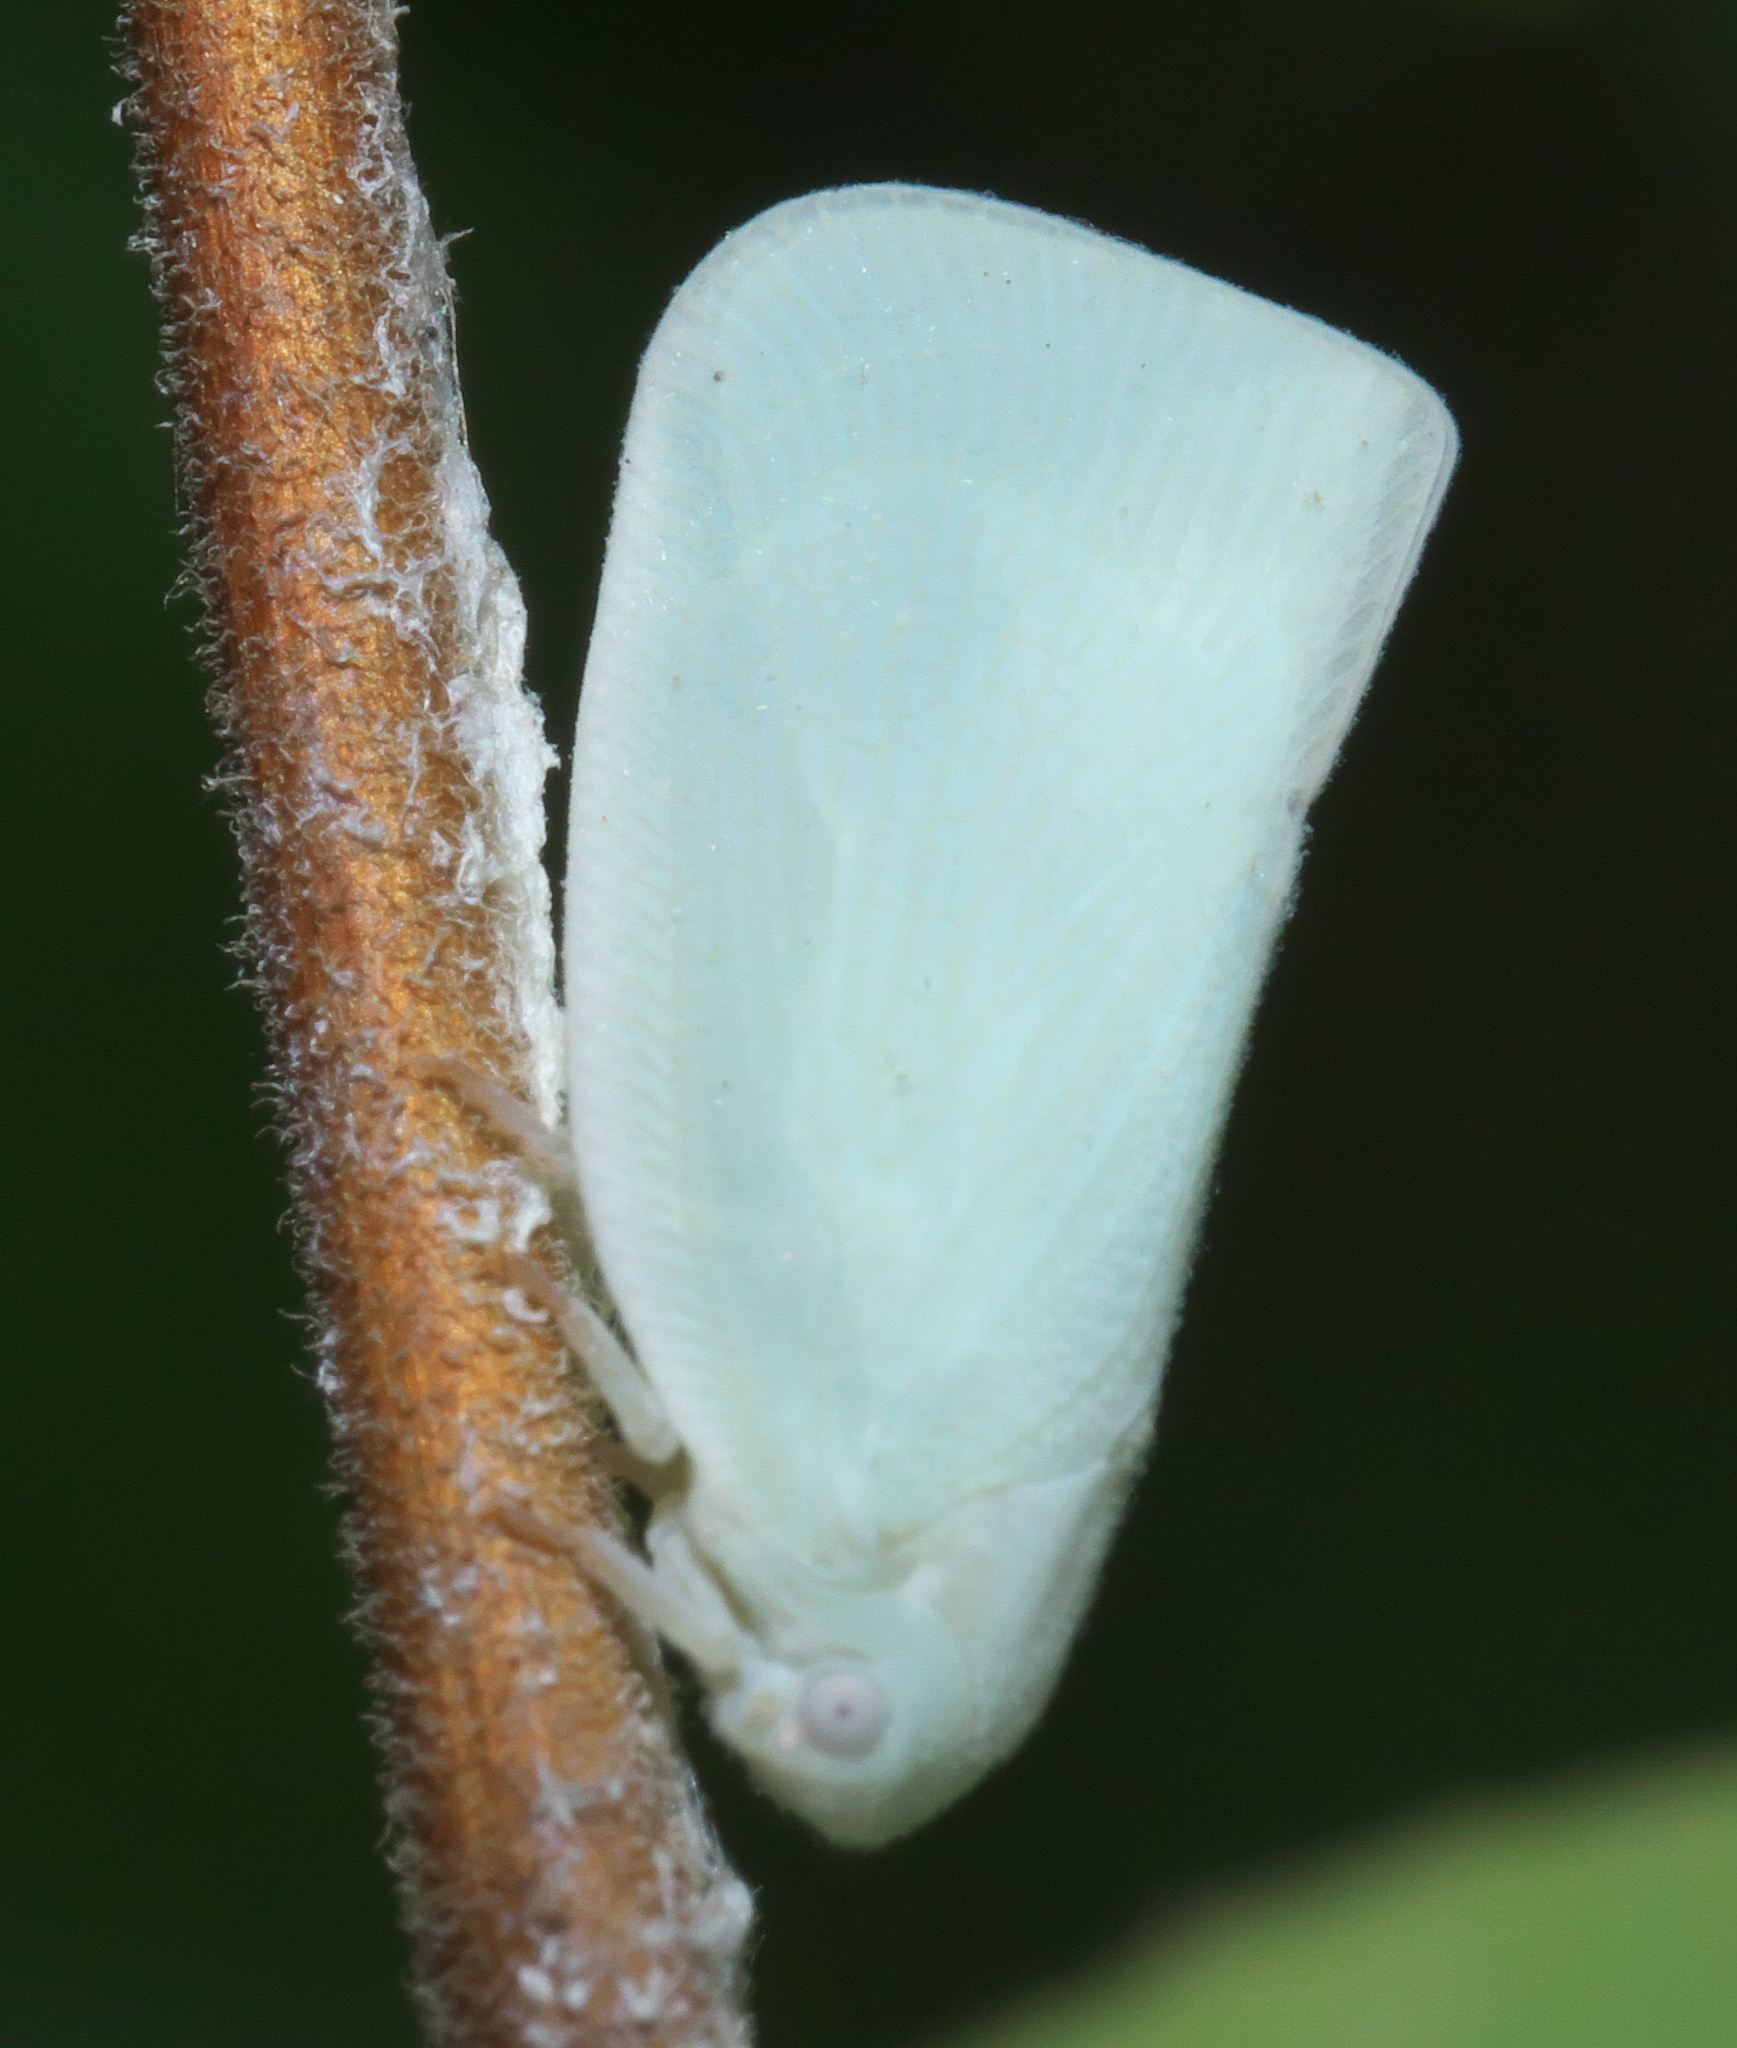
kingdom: Animalia
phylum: Arthropoda
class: Insecta
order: Hemiptera
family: Flatidae
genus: Flatormenis
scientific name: Flatormenis proxima
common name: Northern flatid planthopper
